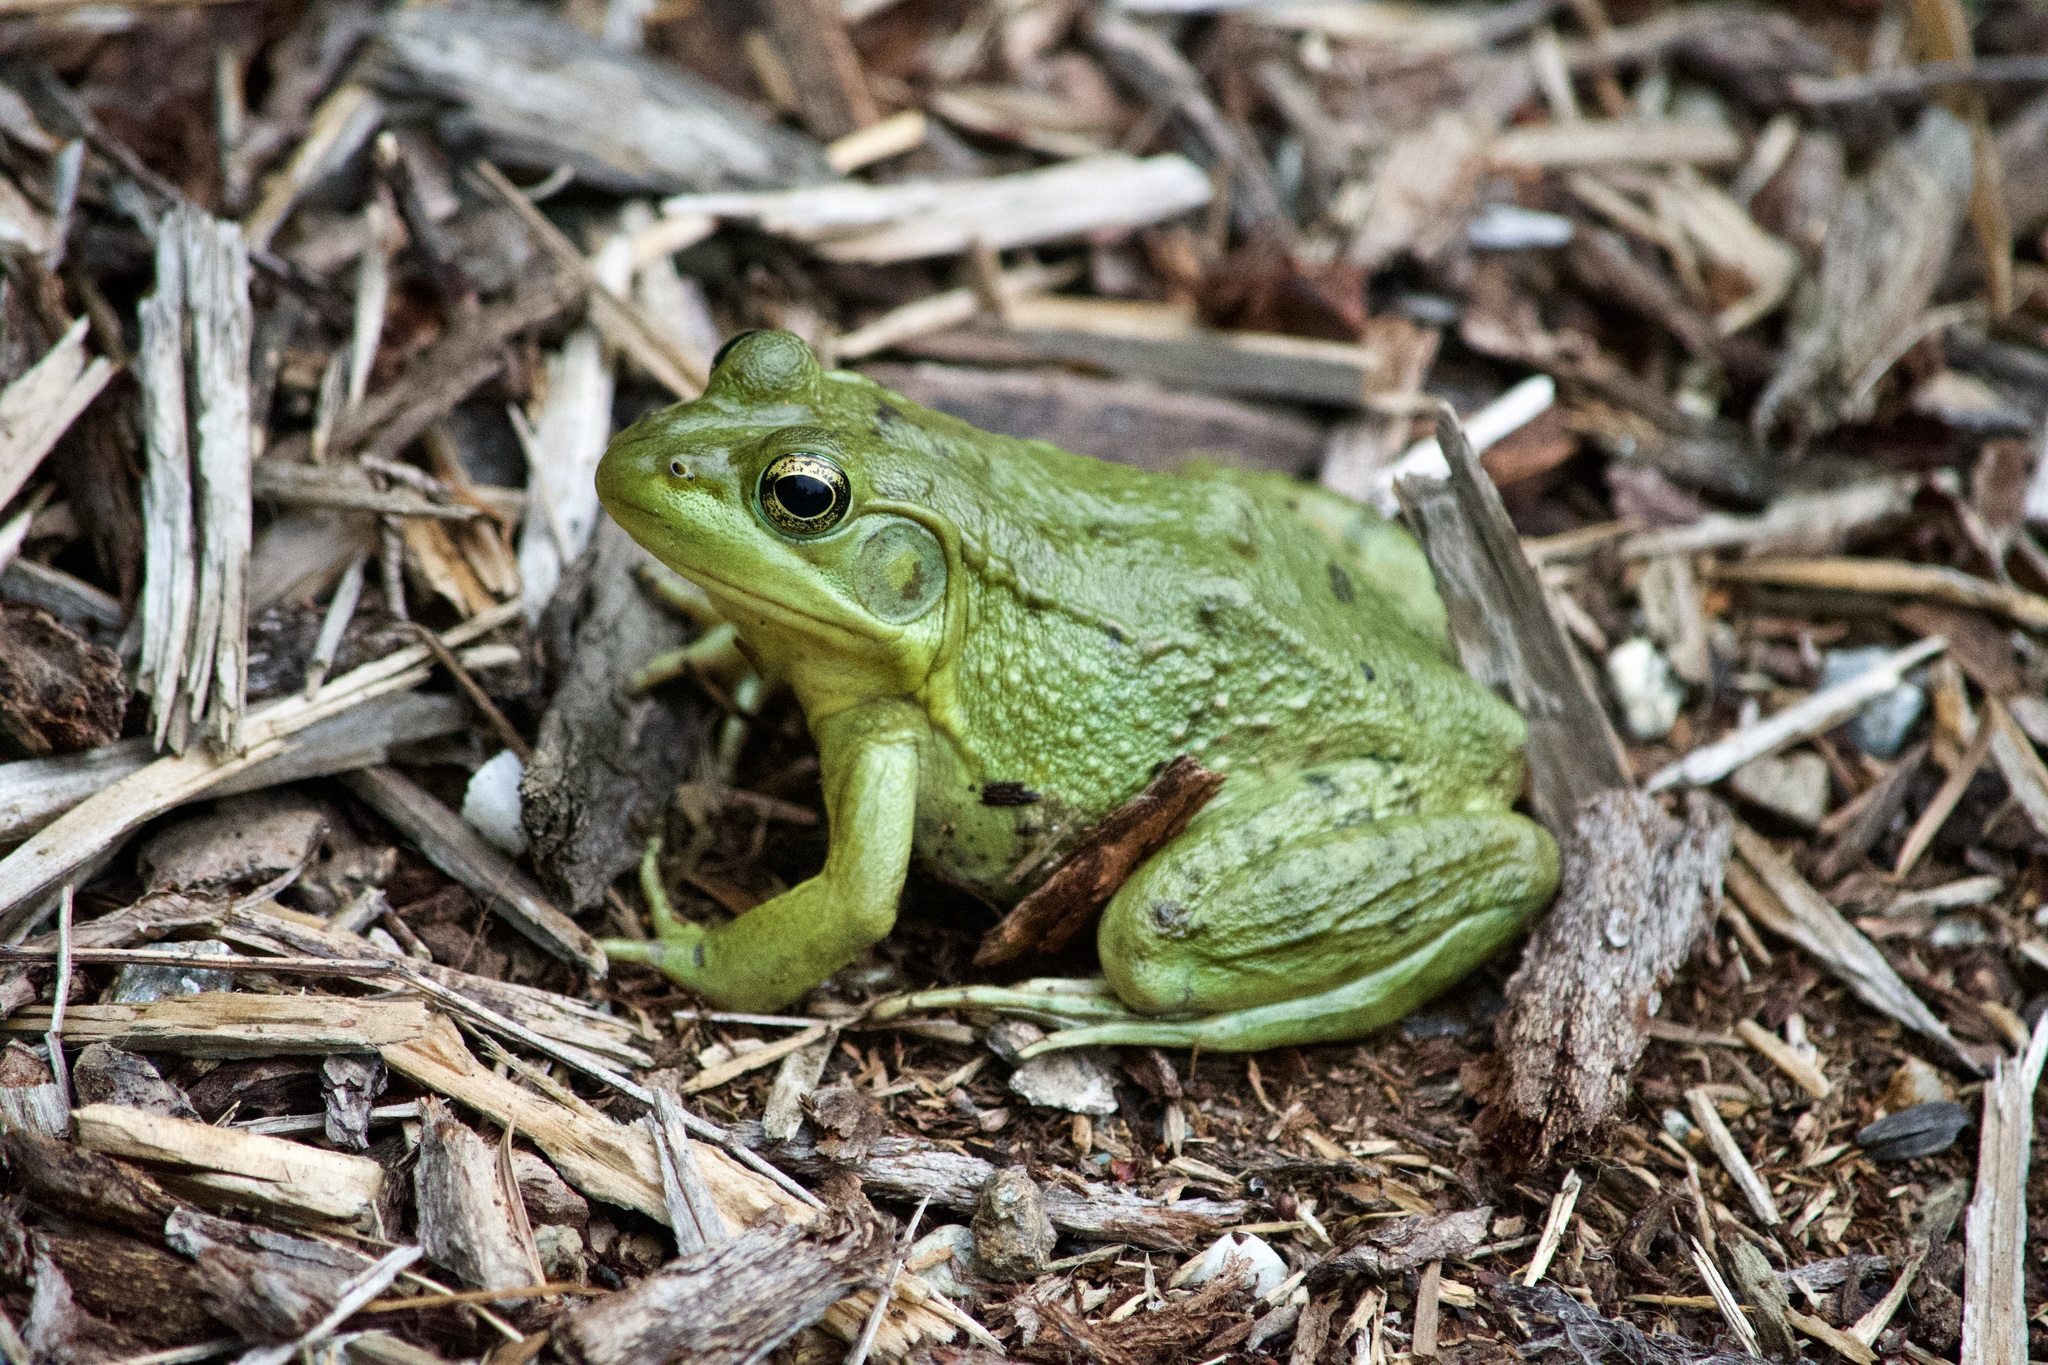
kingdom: Animalia
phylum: Chordata
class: Amphibia
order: Anura
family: Ranidae
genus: Lithobates
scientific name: Lithobates clamitans
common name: Green frog
